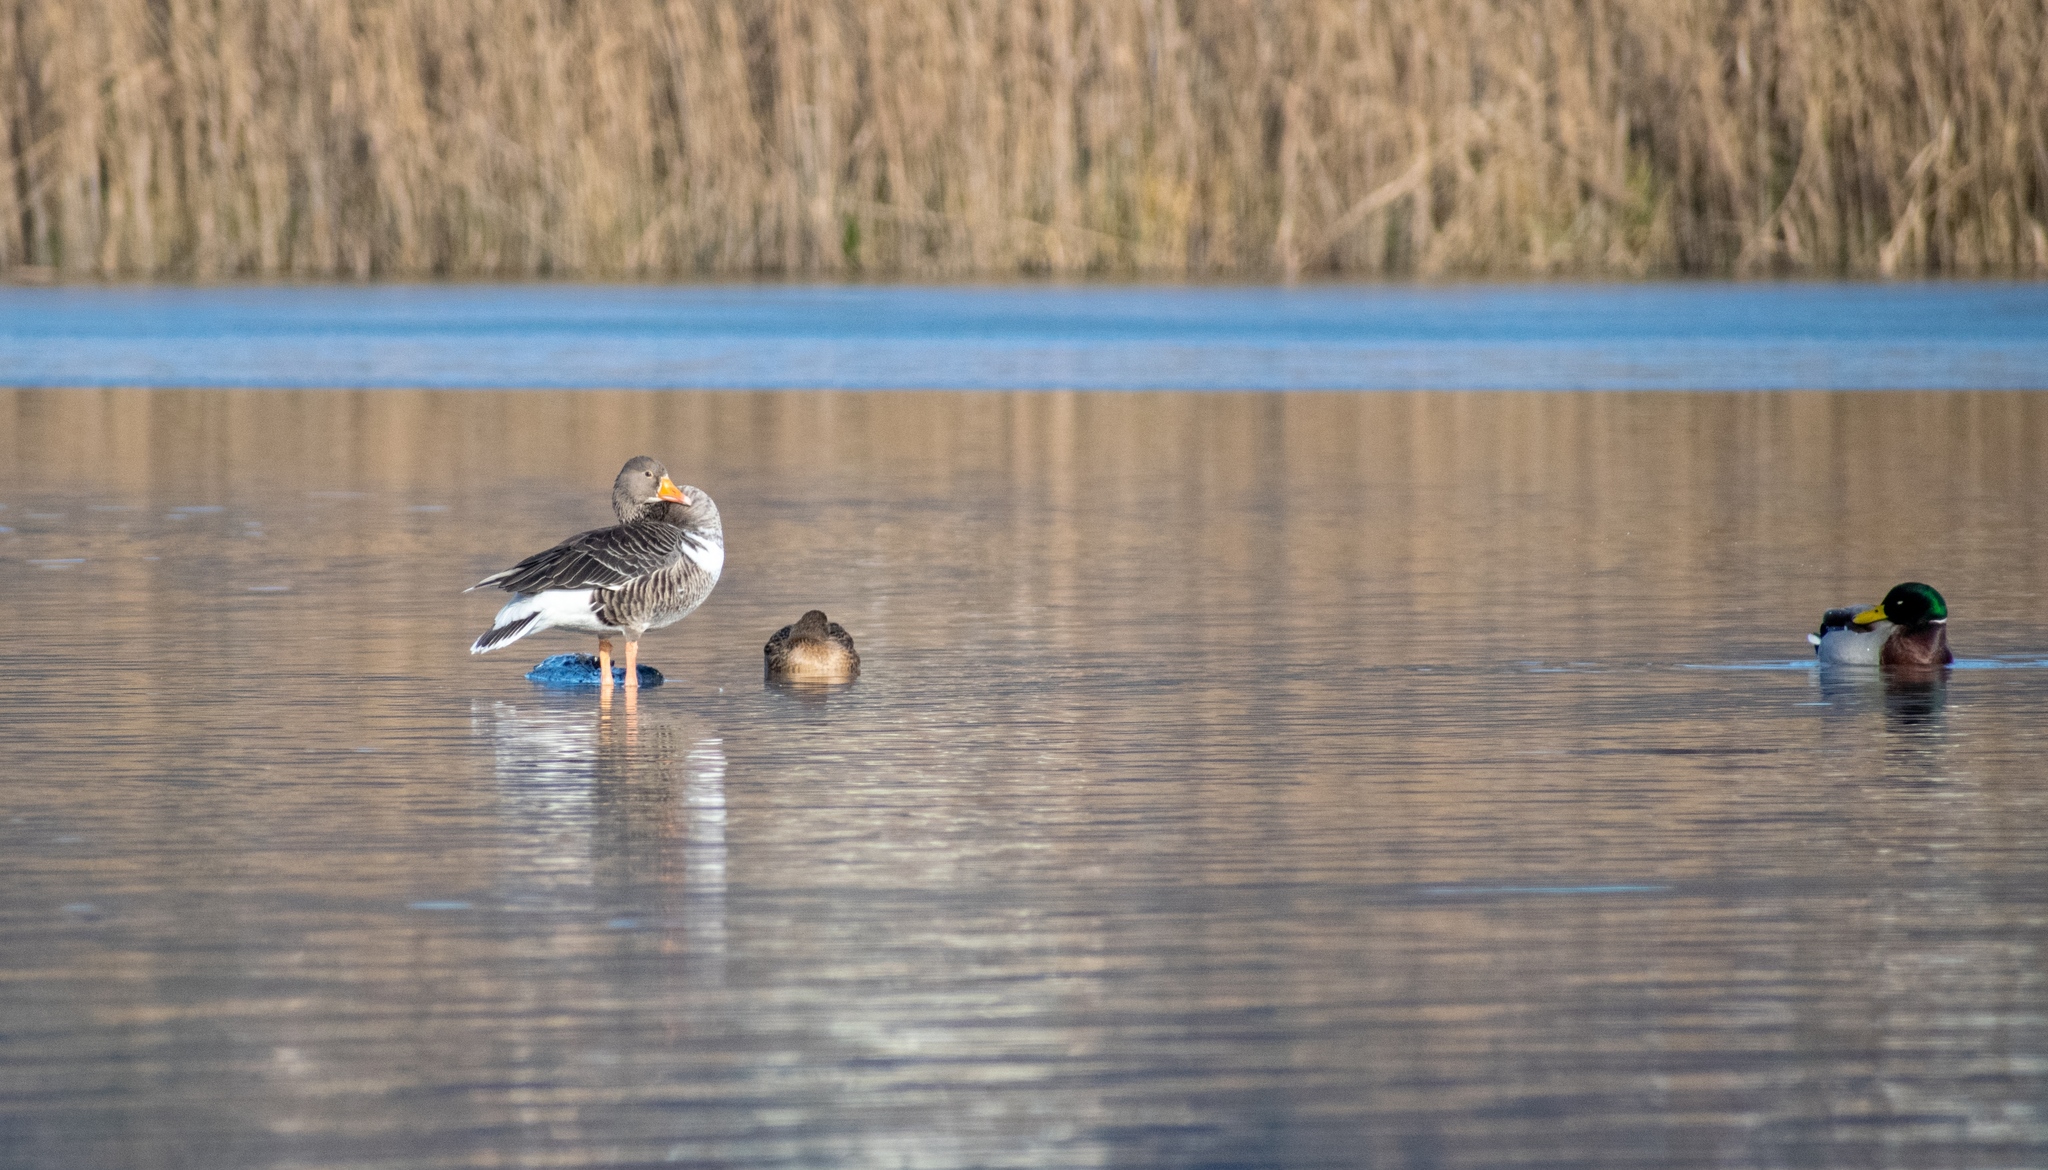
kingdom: Animalia
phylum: Chordata
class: Aves
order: Anseriformes
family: Anatidae
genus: Anser
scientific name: Anser anser
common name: Greylag goose
